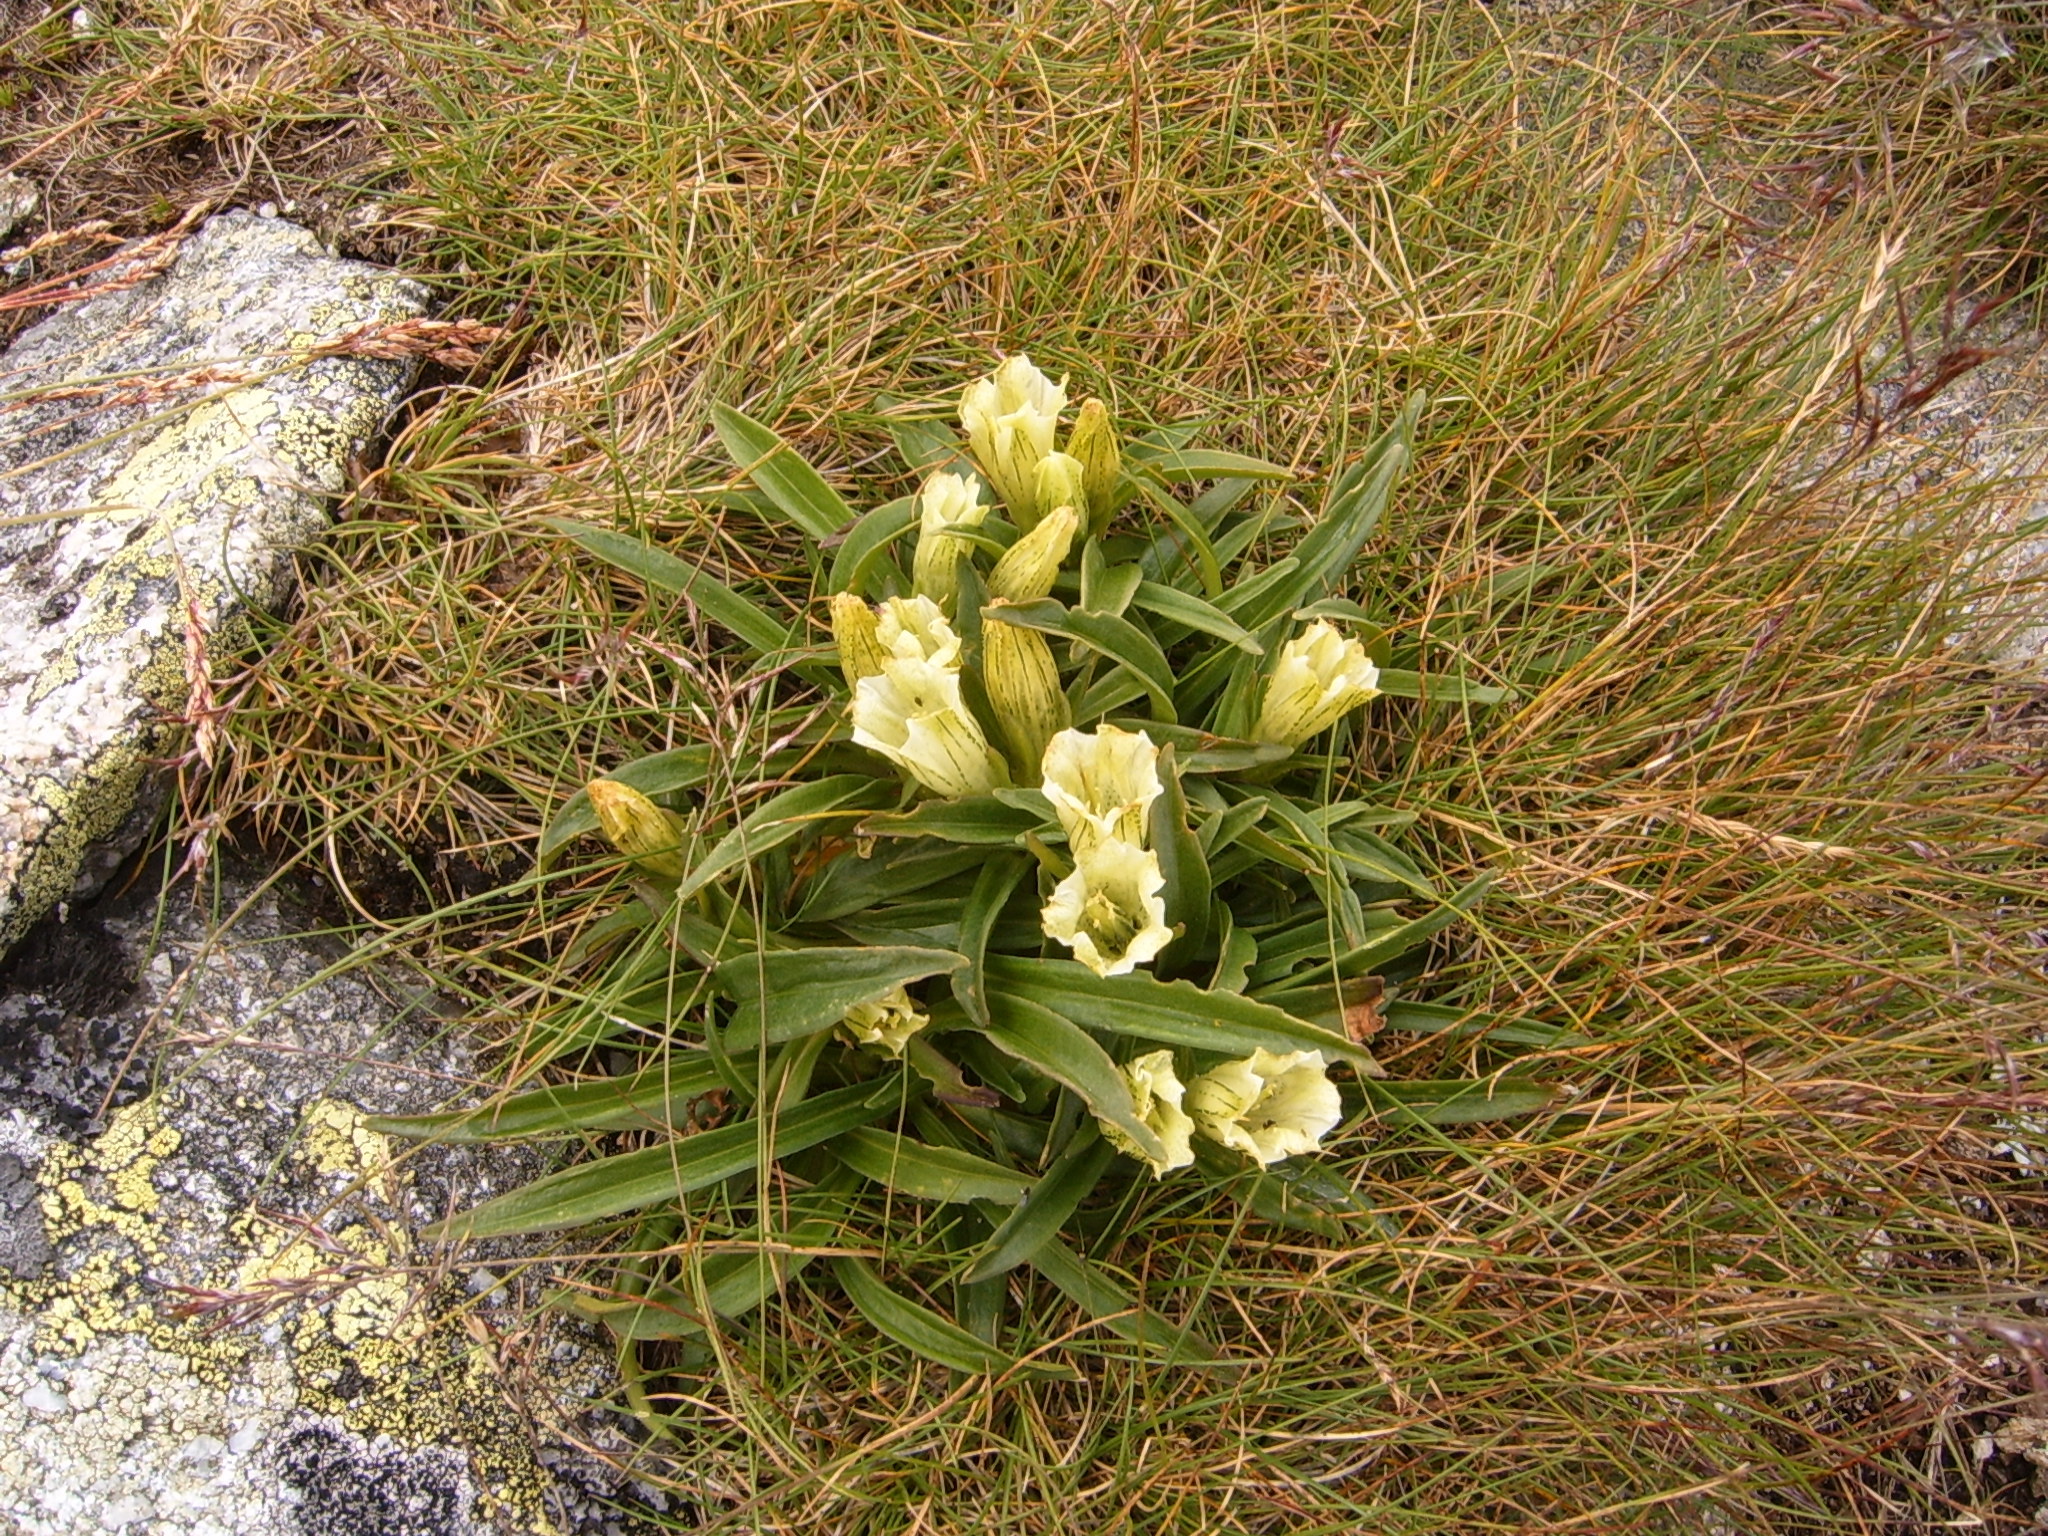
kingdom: Plantae
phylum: Tracheophyta
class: Magnoliopsida
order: Gentianales
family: Gentianaceae
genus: Gentiana
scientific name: Gentiana frigida
